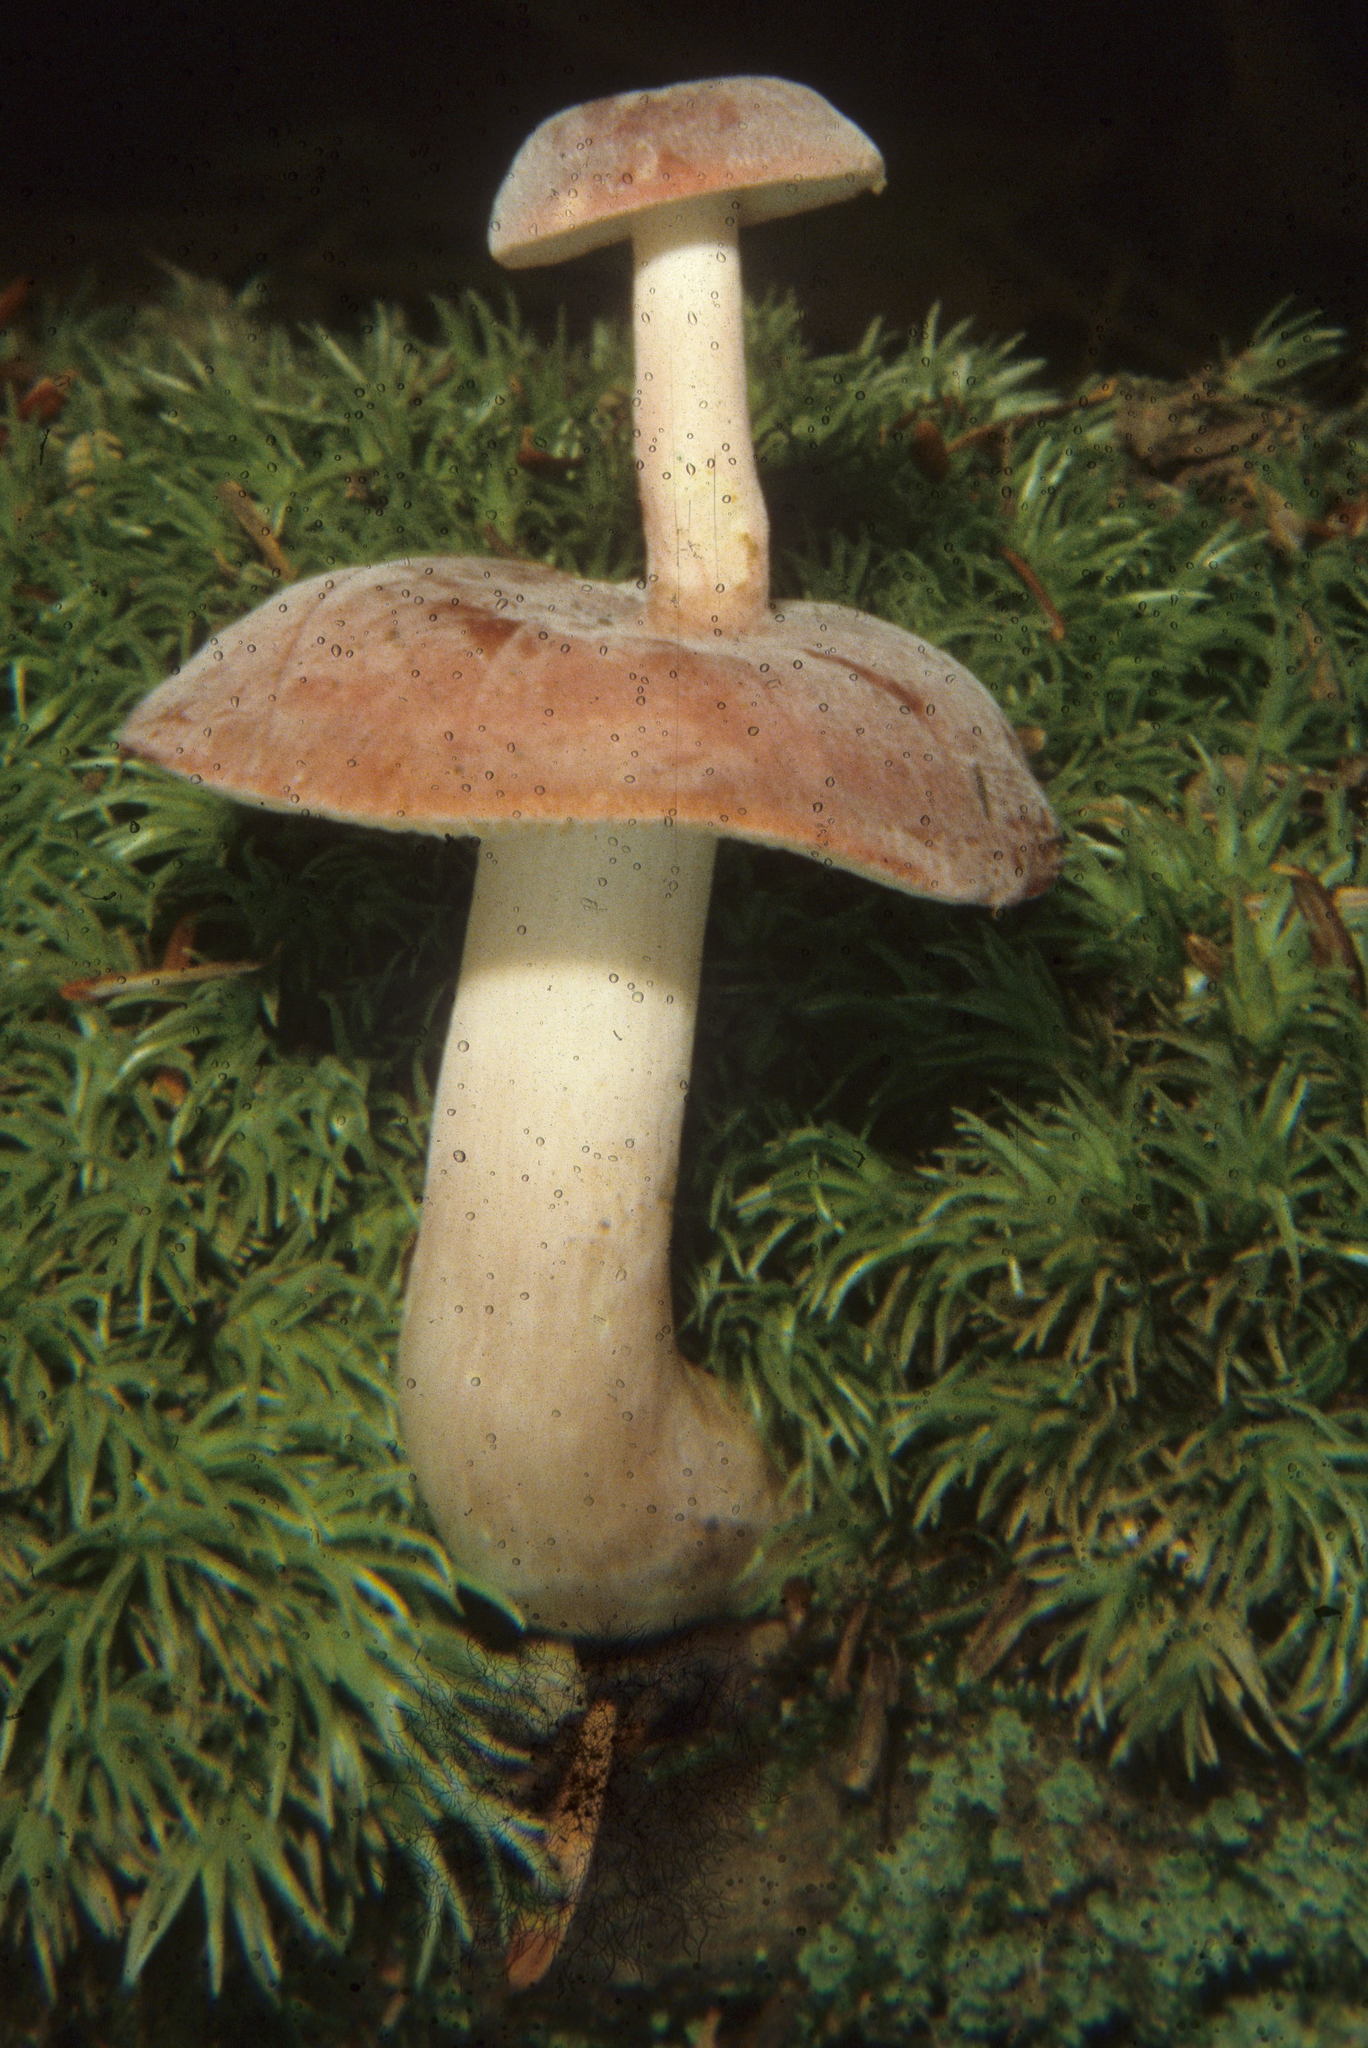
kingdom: Fungi
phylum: Basidiomycota
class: Agaricomycetes
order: Russulales
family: Russulaceae
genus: Russula
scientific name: Russula mariae
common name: Purple-bloom russula
